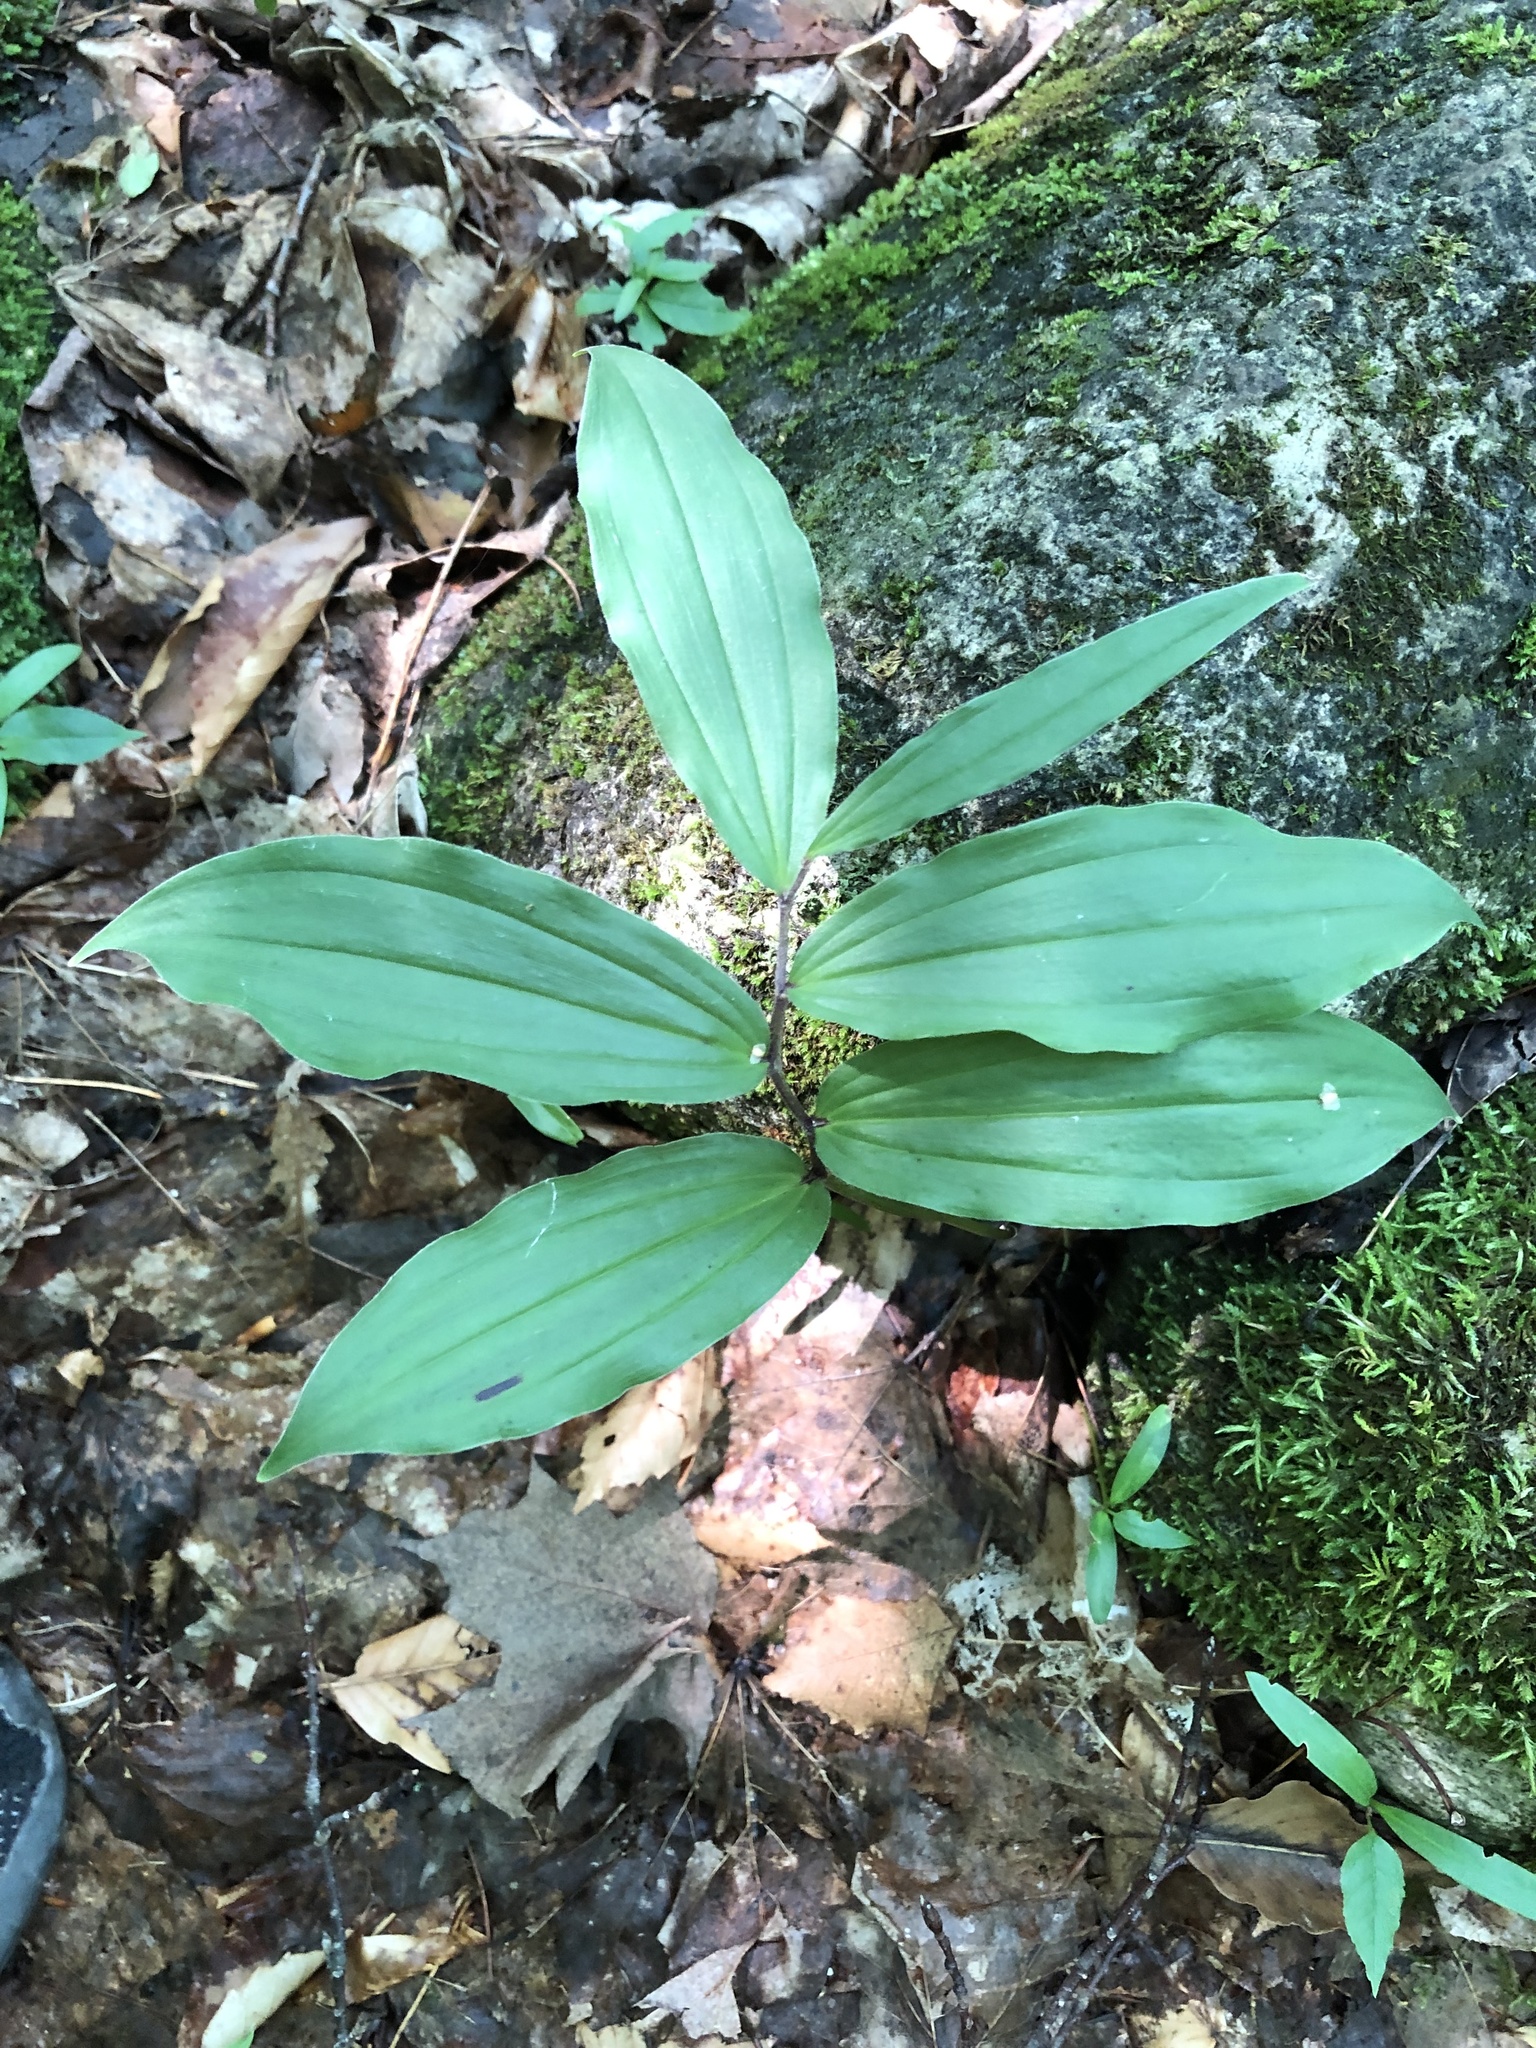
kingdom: Plantae
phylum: Tracheophyta
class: Liliopsida
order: Asparagales
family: Asparagaceae
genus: Maianthemum
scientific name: Maianthemum racemosum
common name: False spikenard
